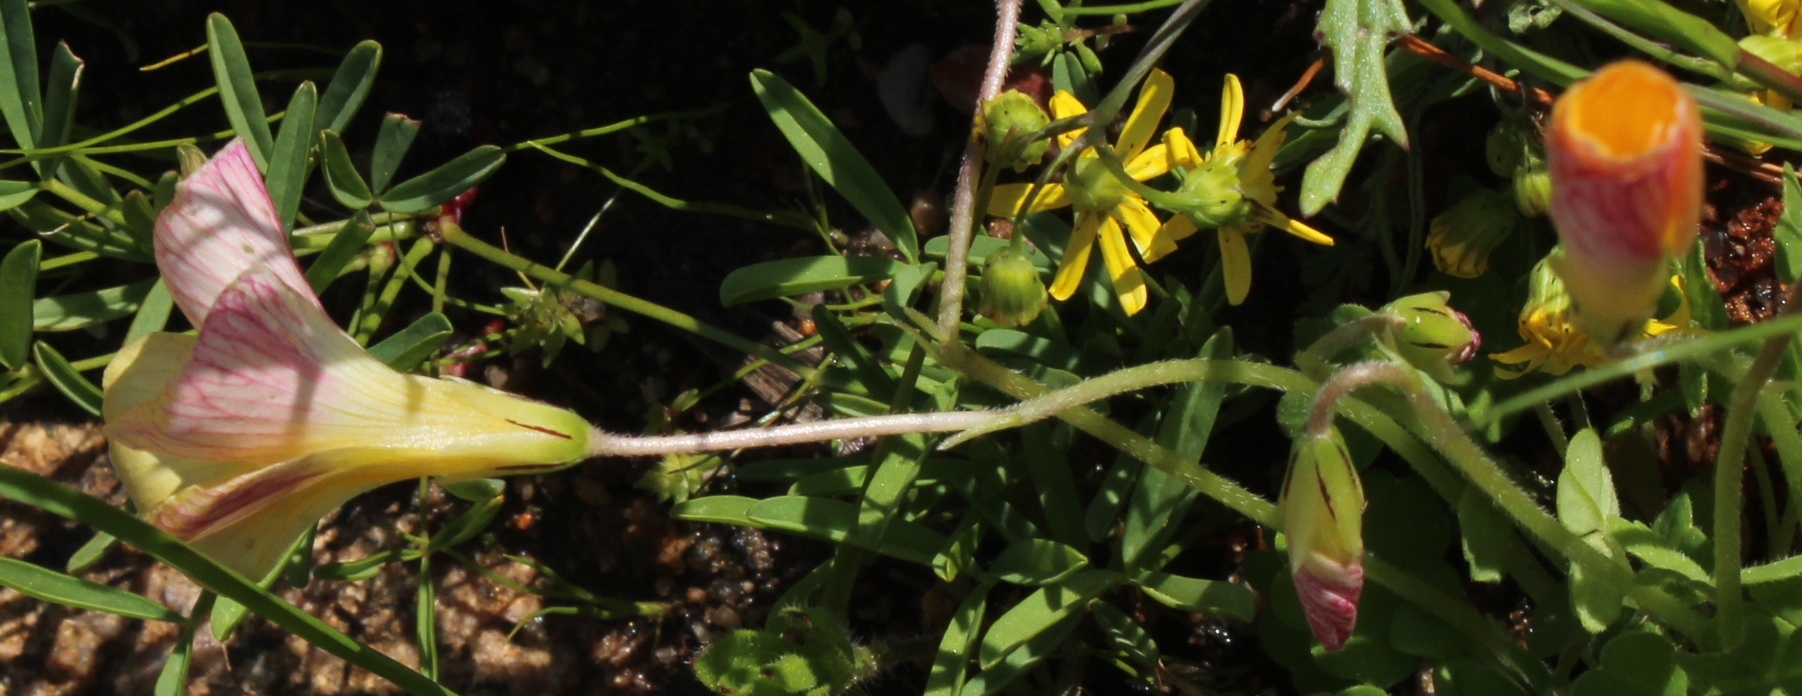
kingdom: Plantae
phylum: Tracheophyta
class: Magnoliopsida
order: Oxalidales
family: Oxalidaceae
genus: Oxalis
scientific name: Oxalis obtusa
